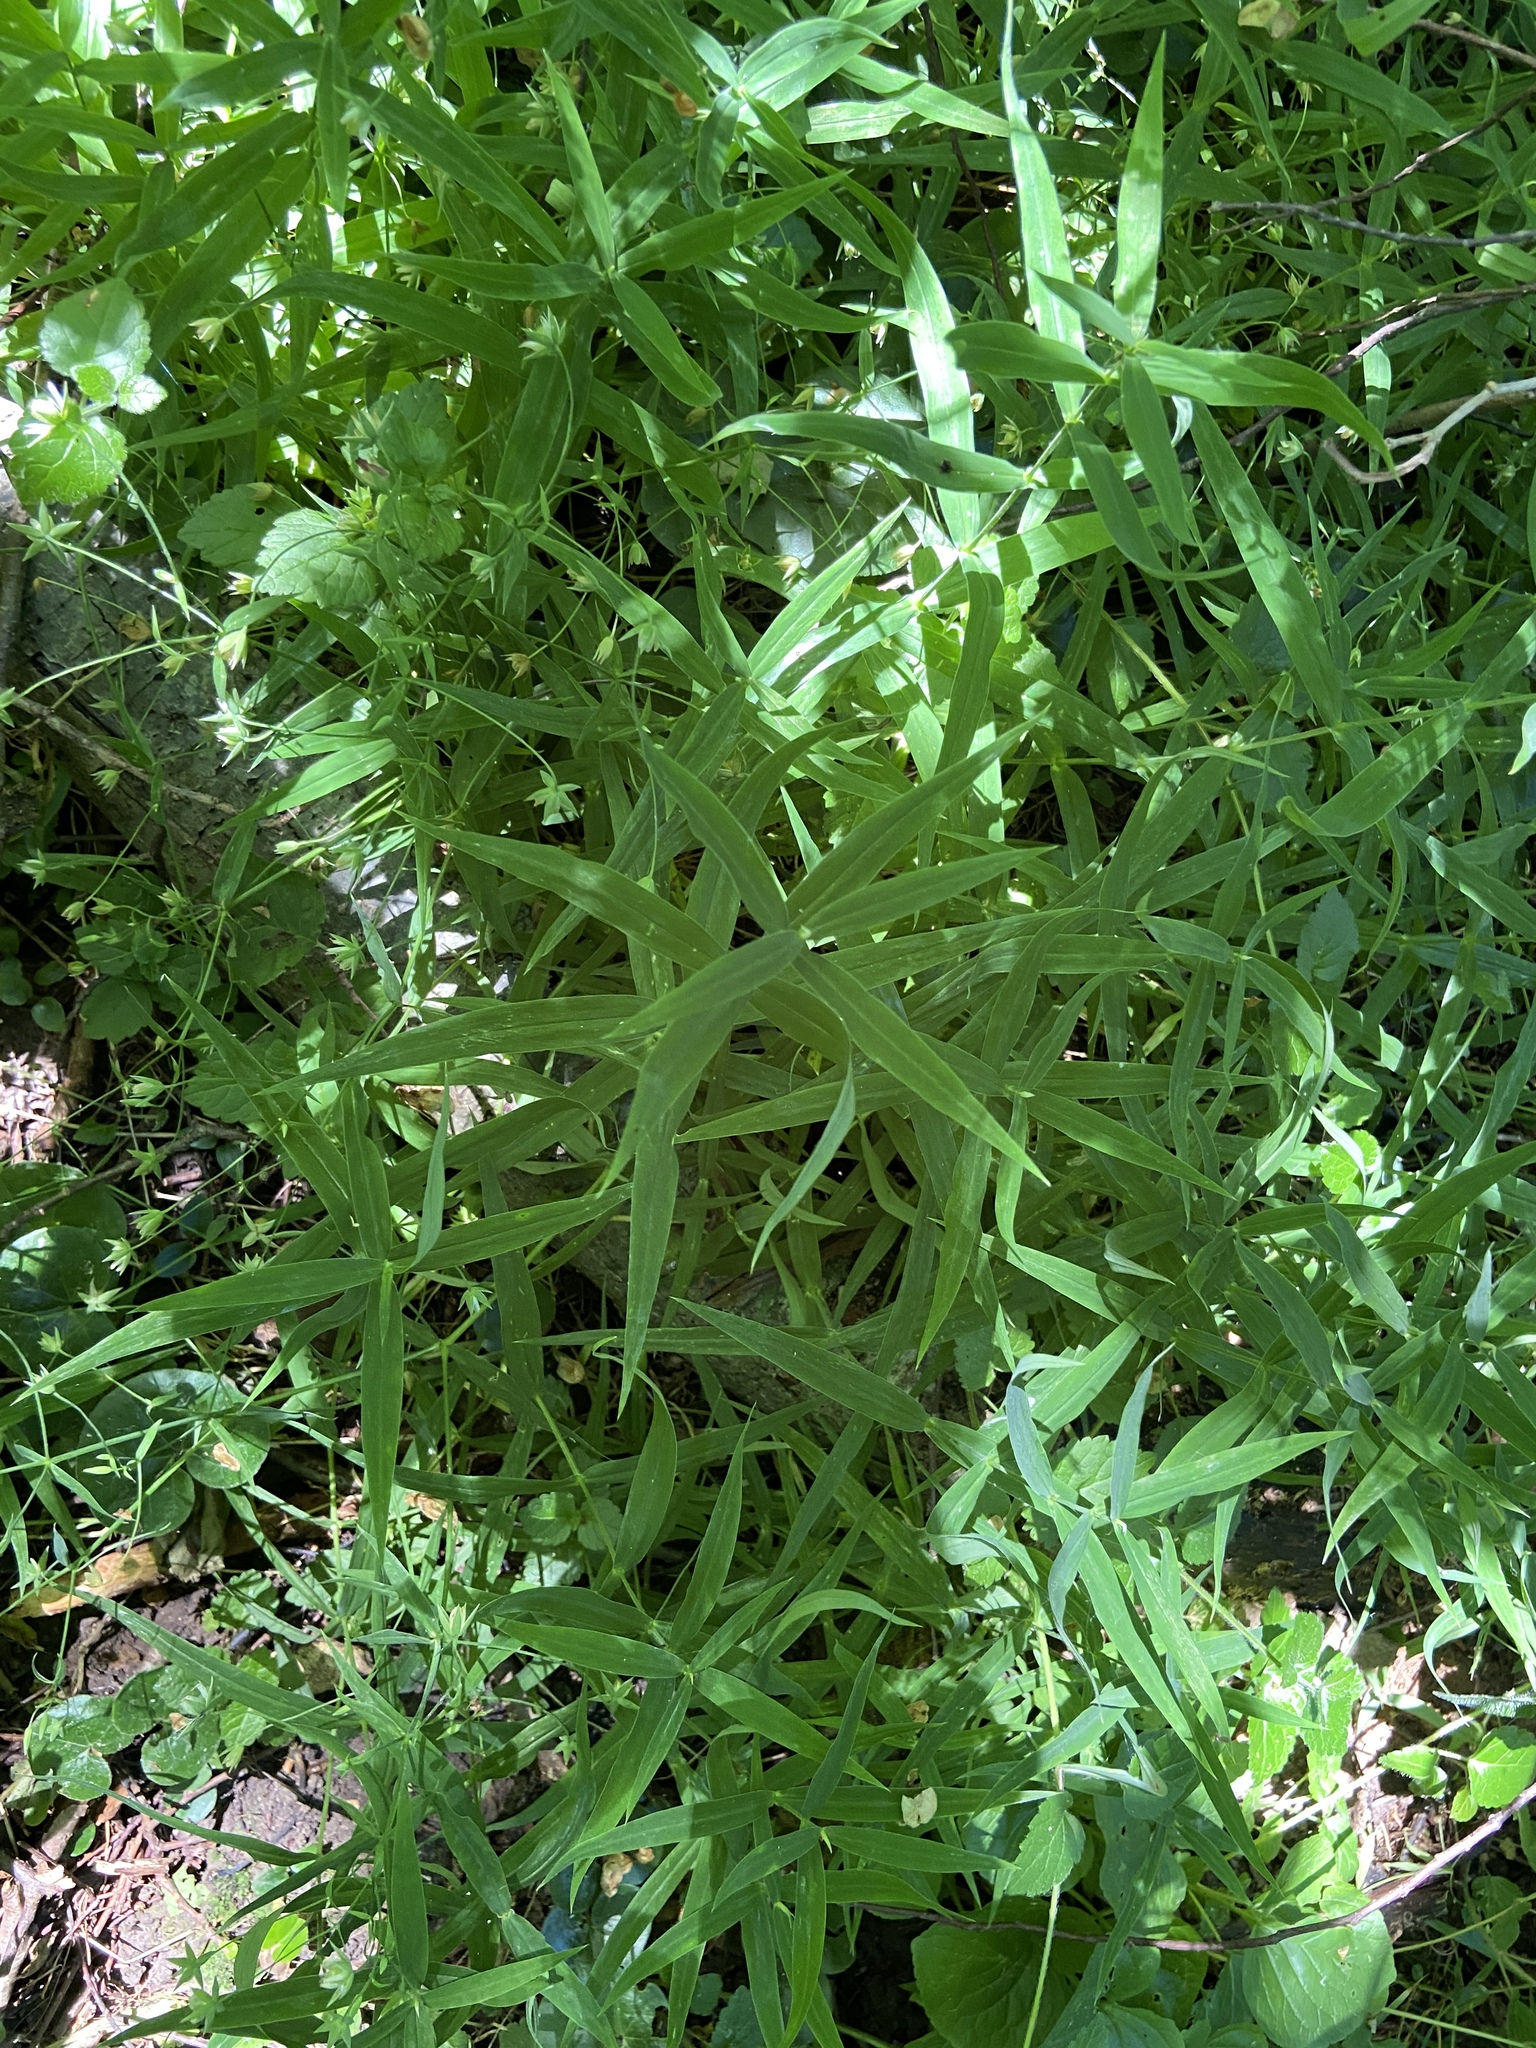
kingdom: Plantae
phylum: Tracheophyta
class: Magnoliopsida
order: Caryophyllales
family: Caryophyllaceae
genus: Rabelera
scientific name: Rabelera holostea
